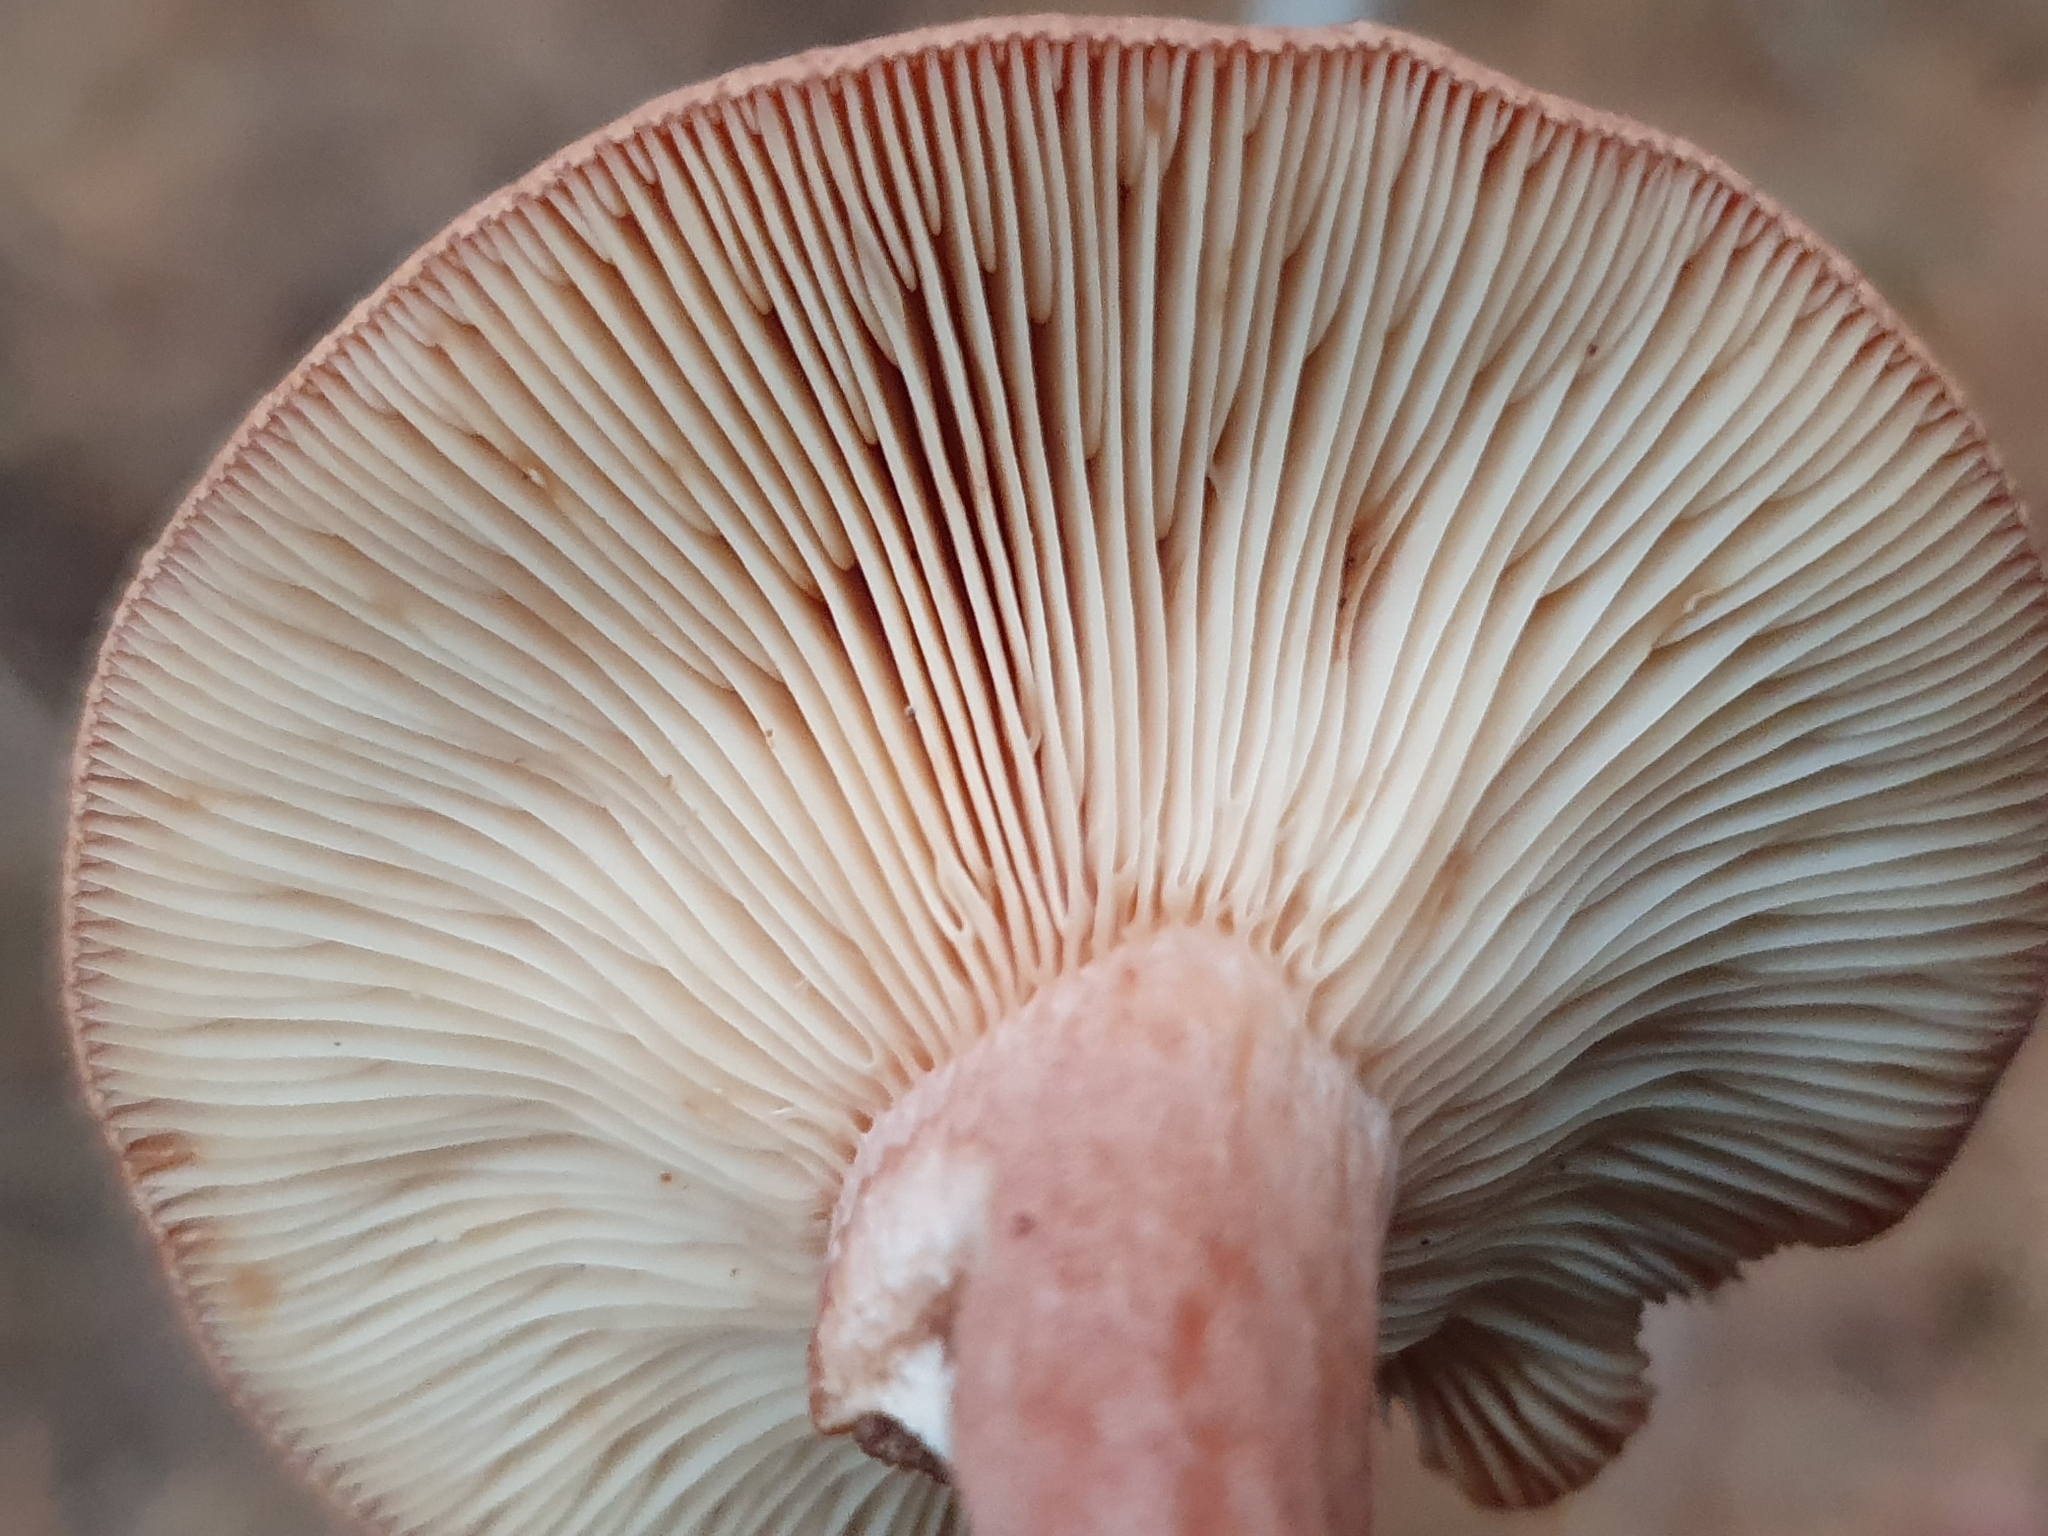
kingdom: Fungi
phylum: Basidiomycota
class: Agaricomycetes
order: Russulales
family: Russulaceae
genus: Lactarius
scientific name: Lactarius rufus
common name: Rufous milk-cap
